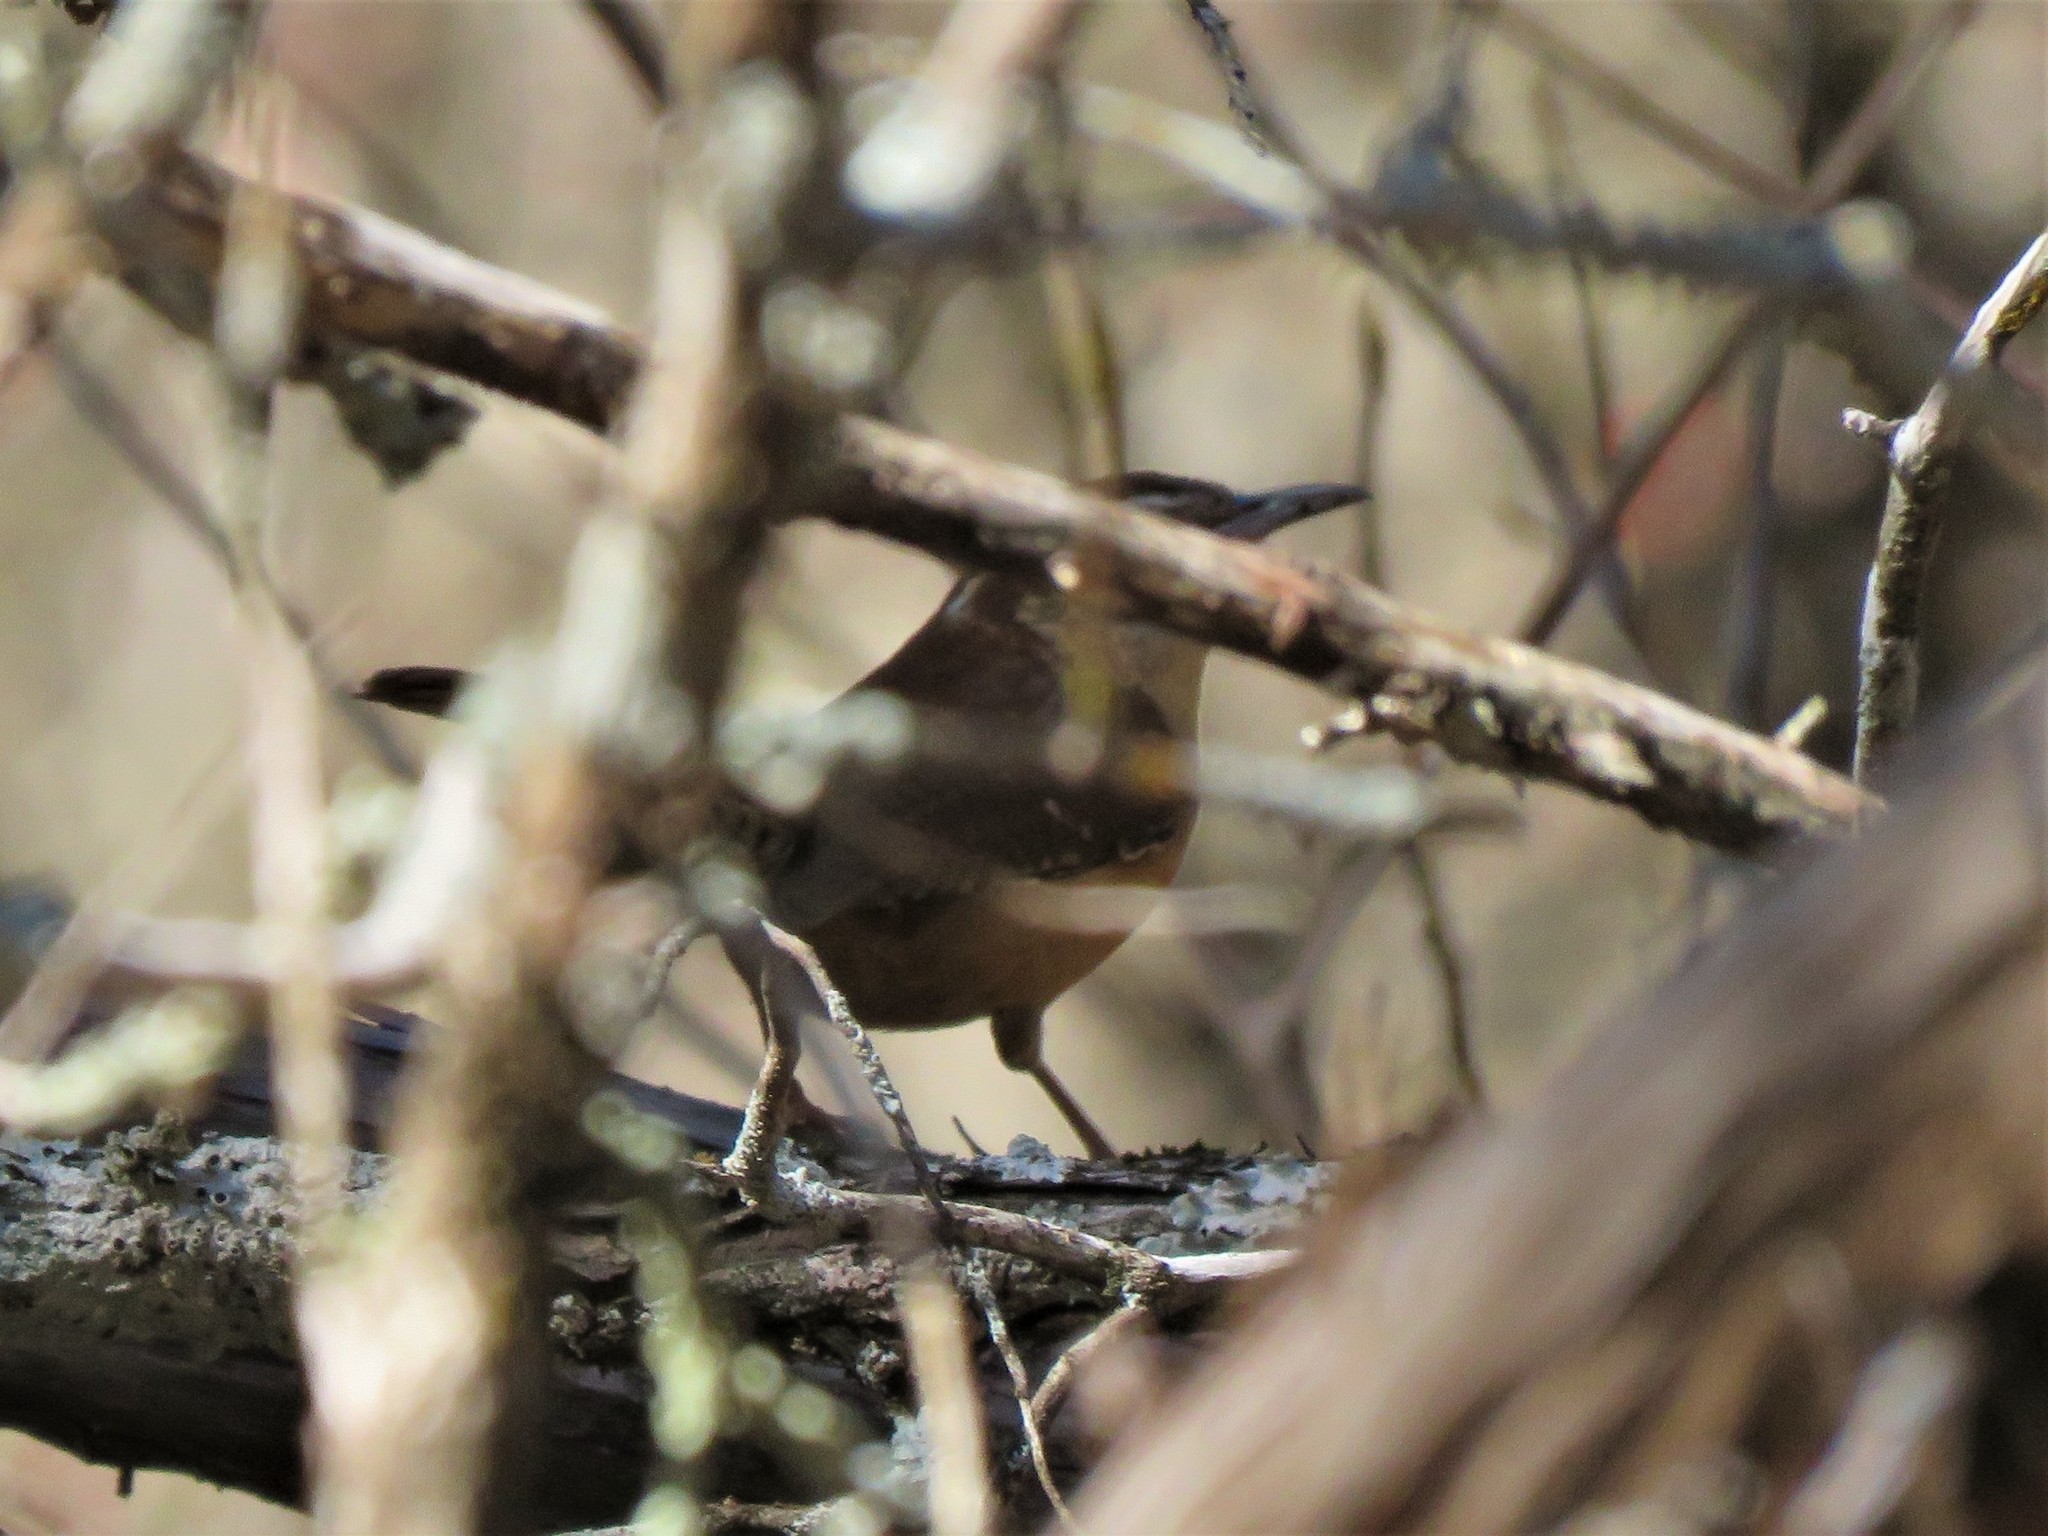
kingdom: Animalia
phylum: Chordata
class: Aves
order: Passeriformes
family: Troglodytidae
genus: Thryothorus
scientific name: Thryothorus ludovicianus
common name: Carolina wren
